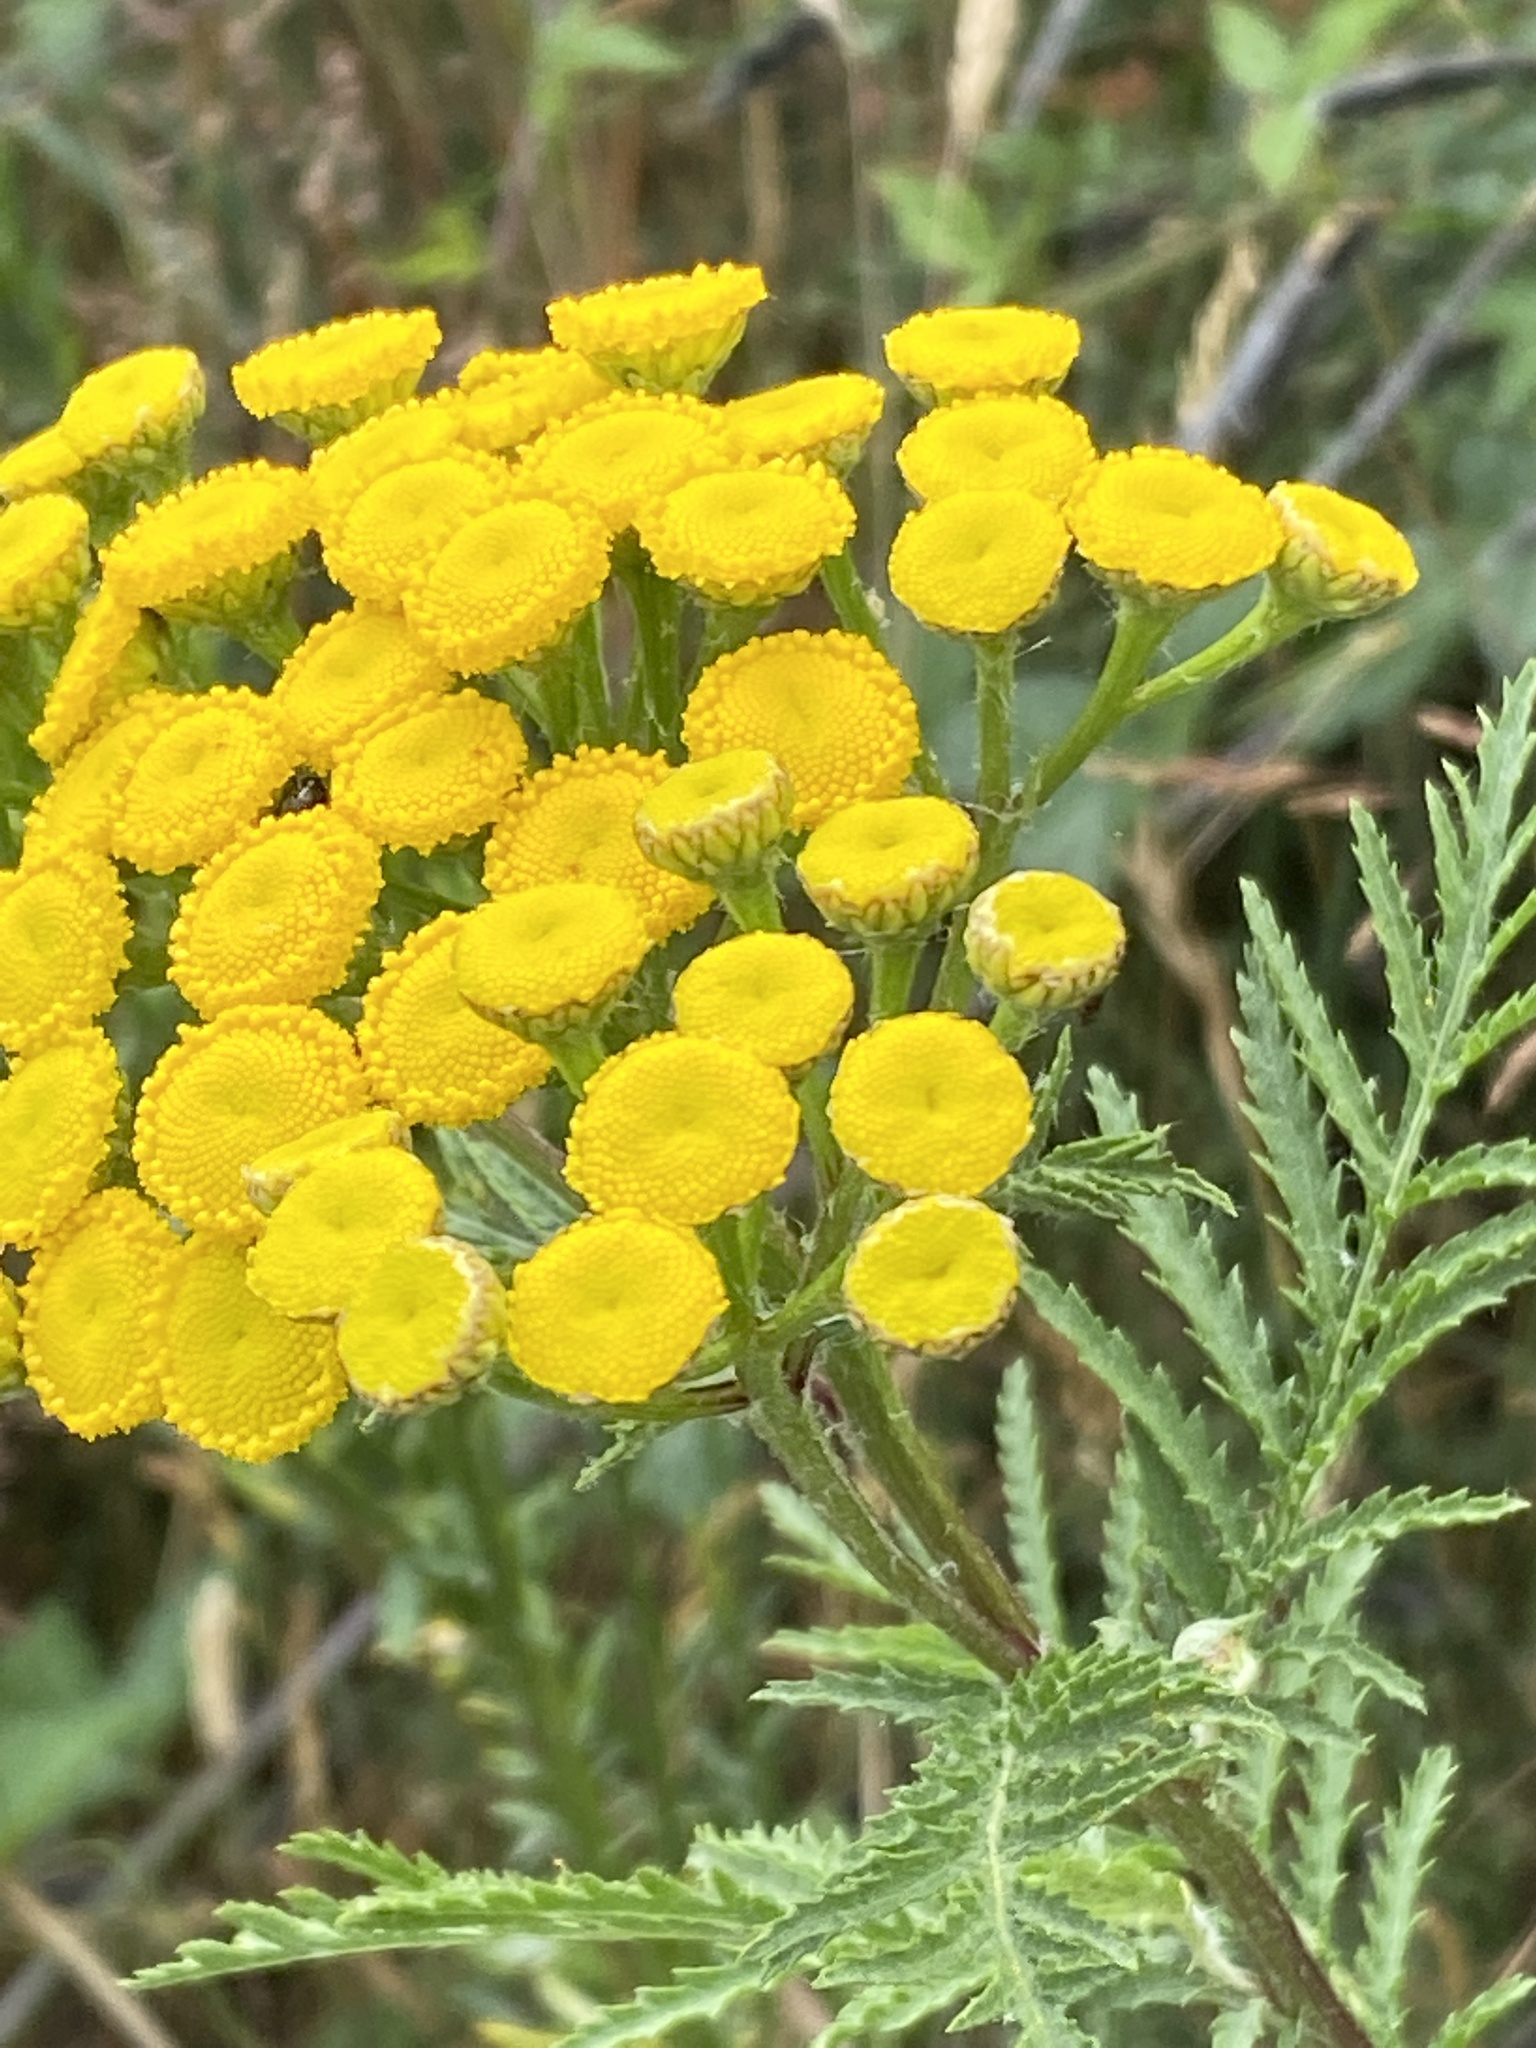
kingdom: Plantae
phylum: Tracheophyta
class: Magnoliopsida
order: Asterales
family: Asteraceae
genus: Tanacetum
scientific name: Tanacetum vulgare
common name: Common tansy
